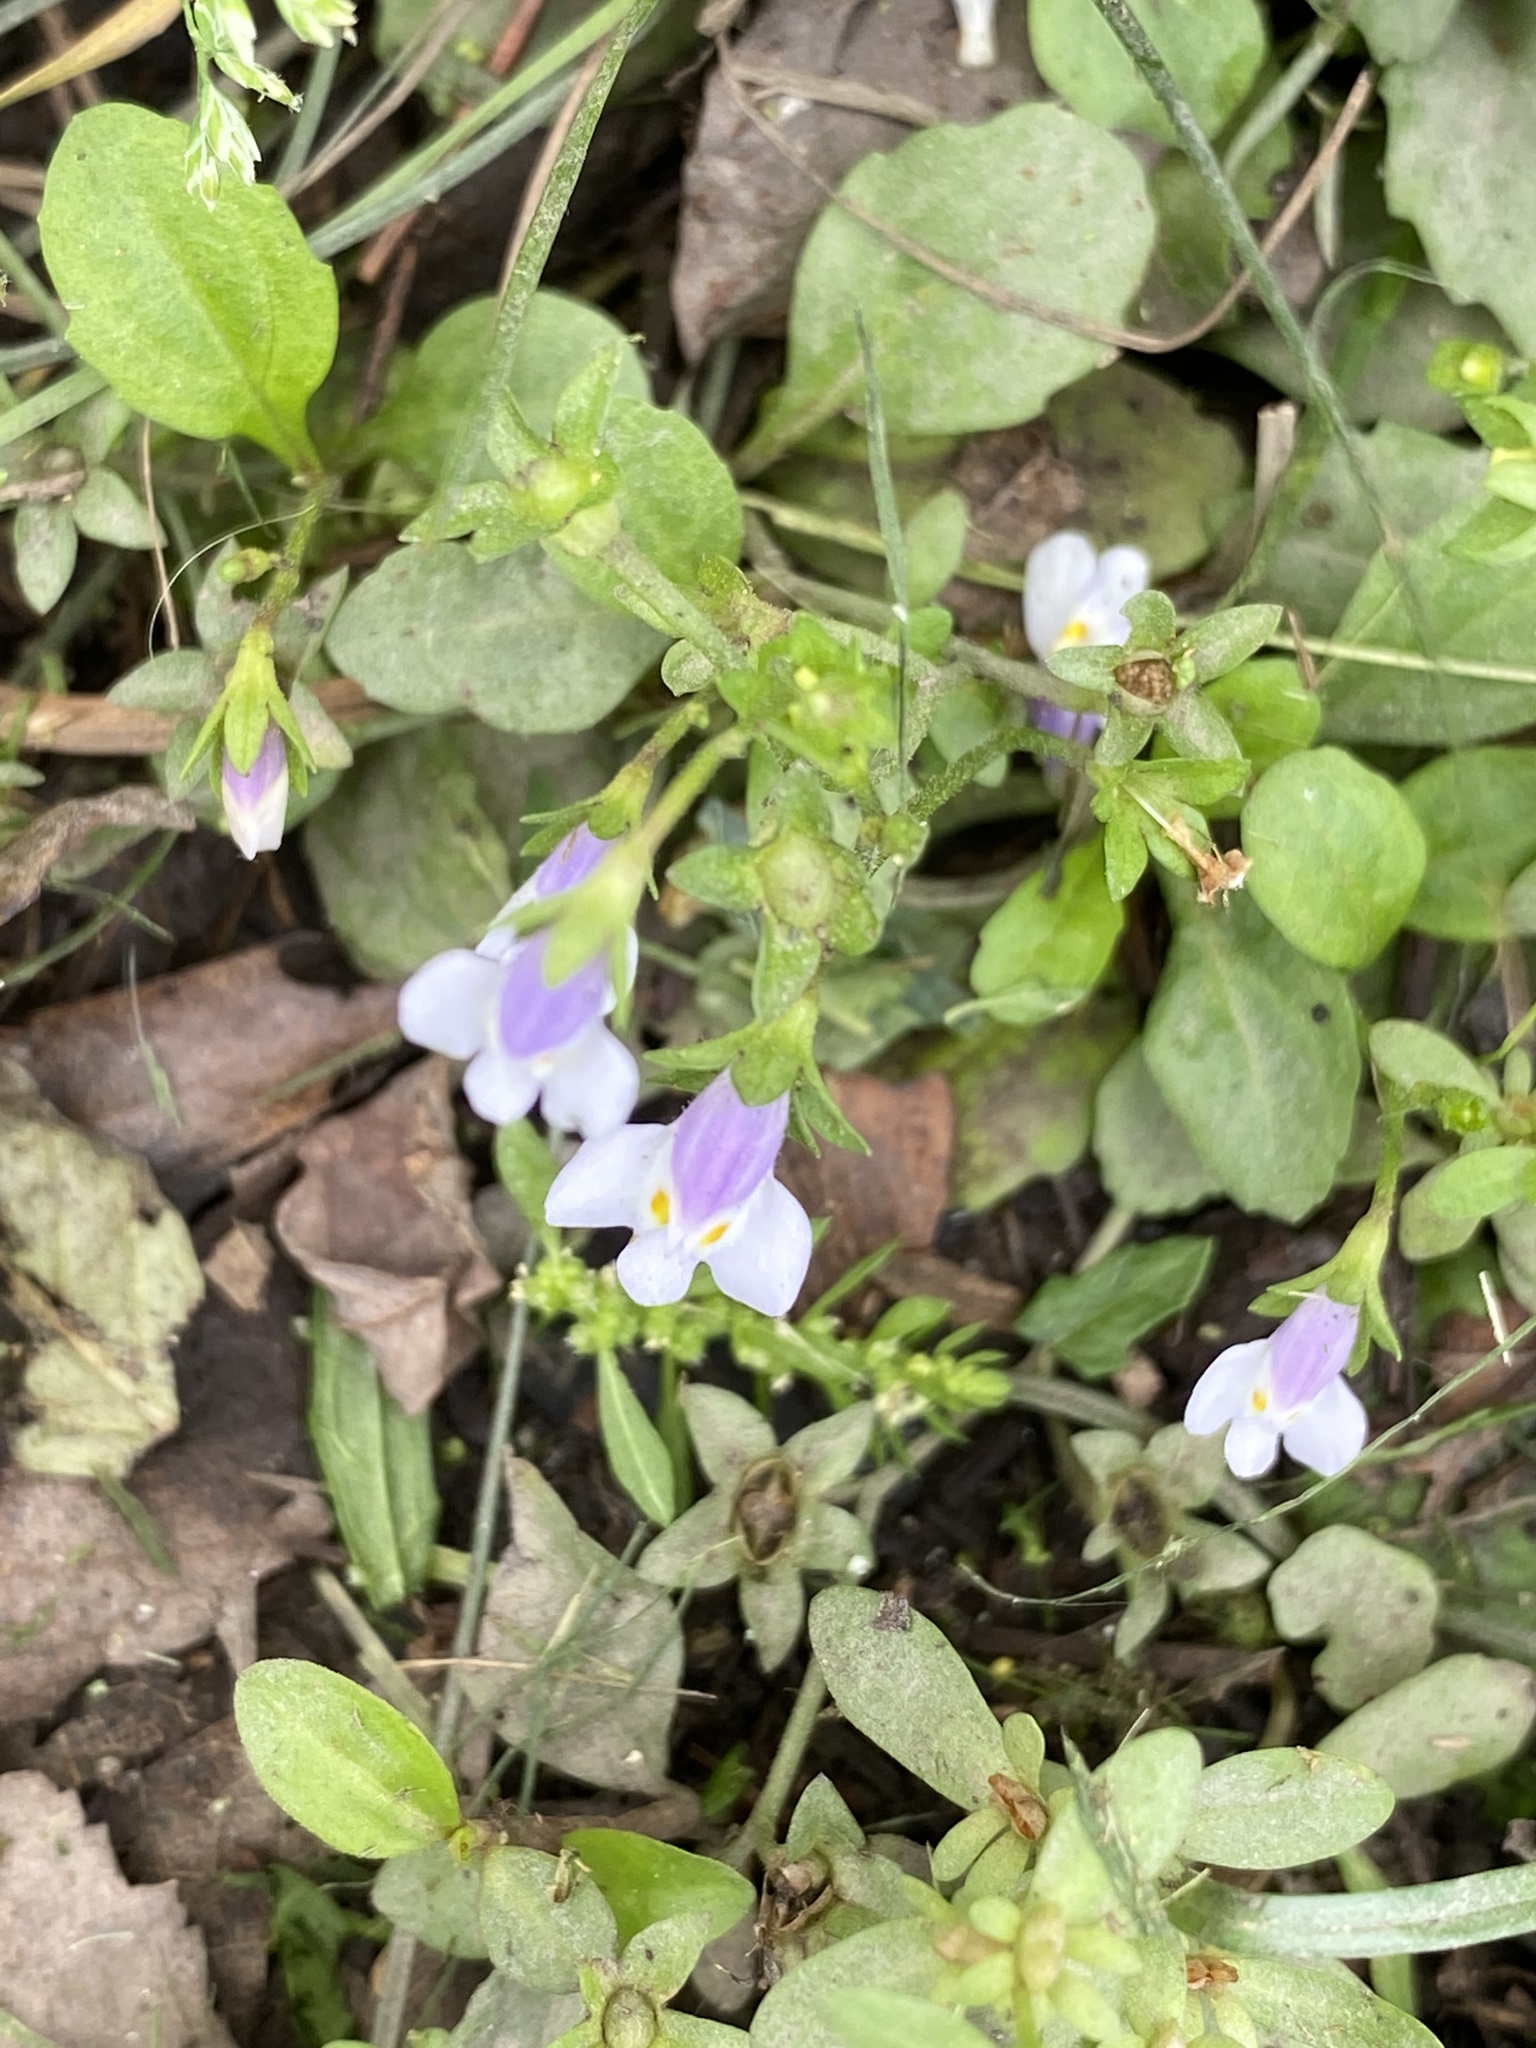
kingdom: Plantae
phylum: Tracheophyta
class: Magnoliopsida
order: Lamiales
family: Mazaceae
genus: Mazus
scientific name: Mazus pumilus
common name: Japanese mazus
